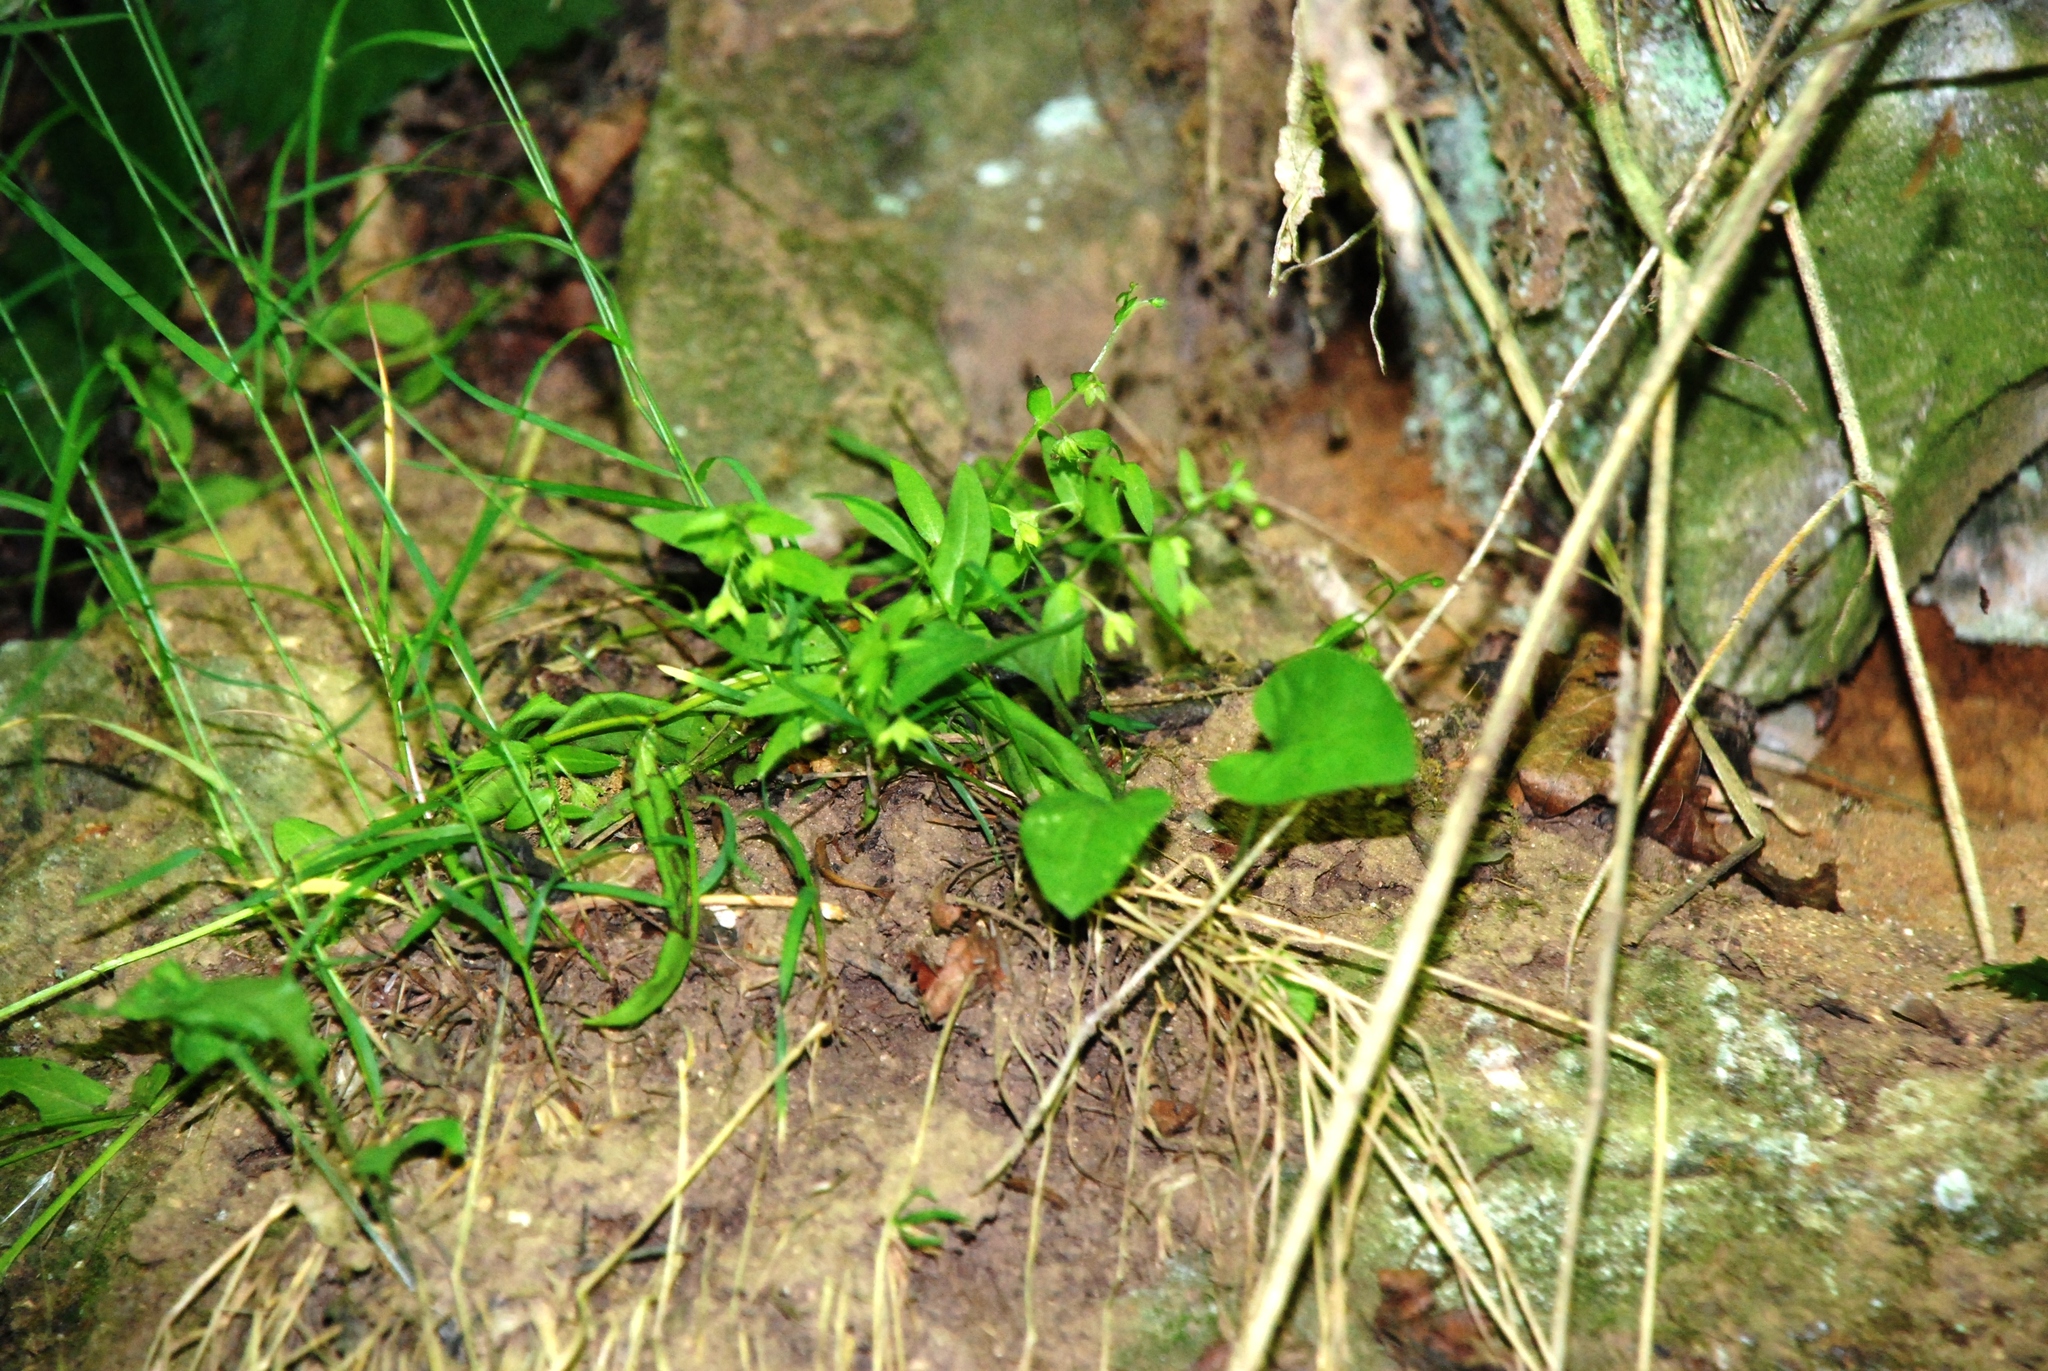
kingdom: Plantae
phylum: Tracheophyta
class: Magnoliopsida
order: Boraginales
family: Boraginaceae
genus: Memoremea
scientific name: Memoremea scorpioides
